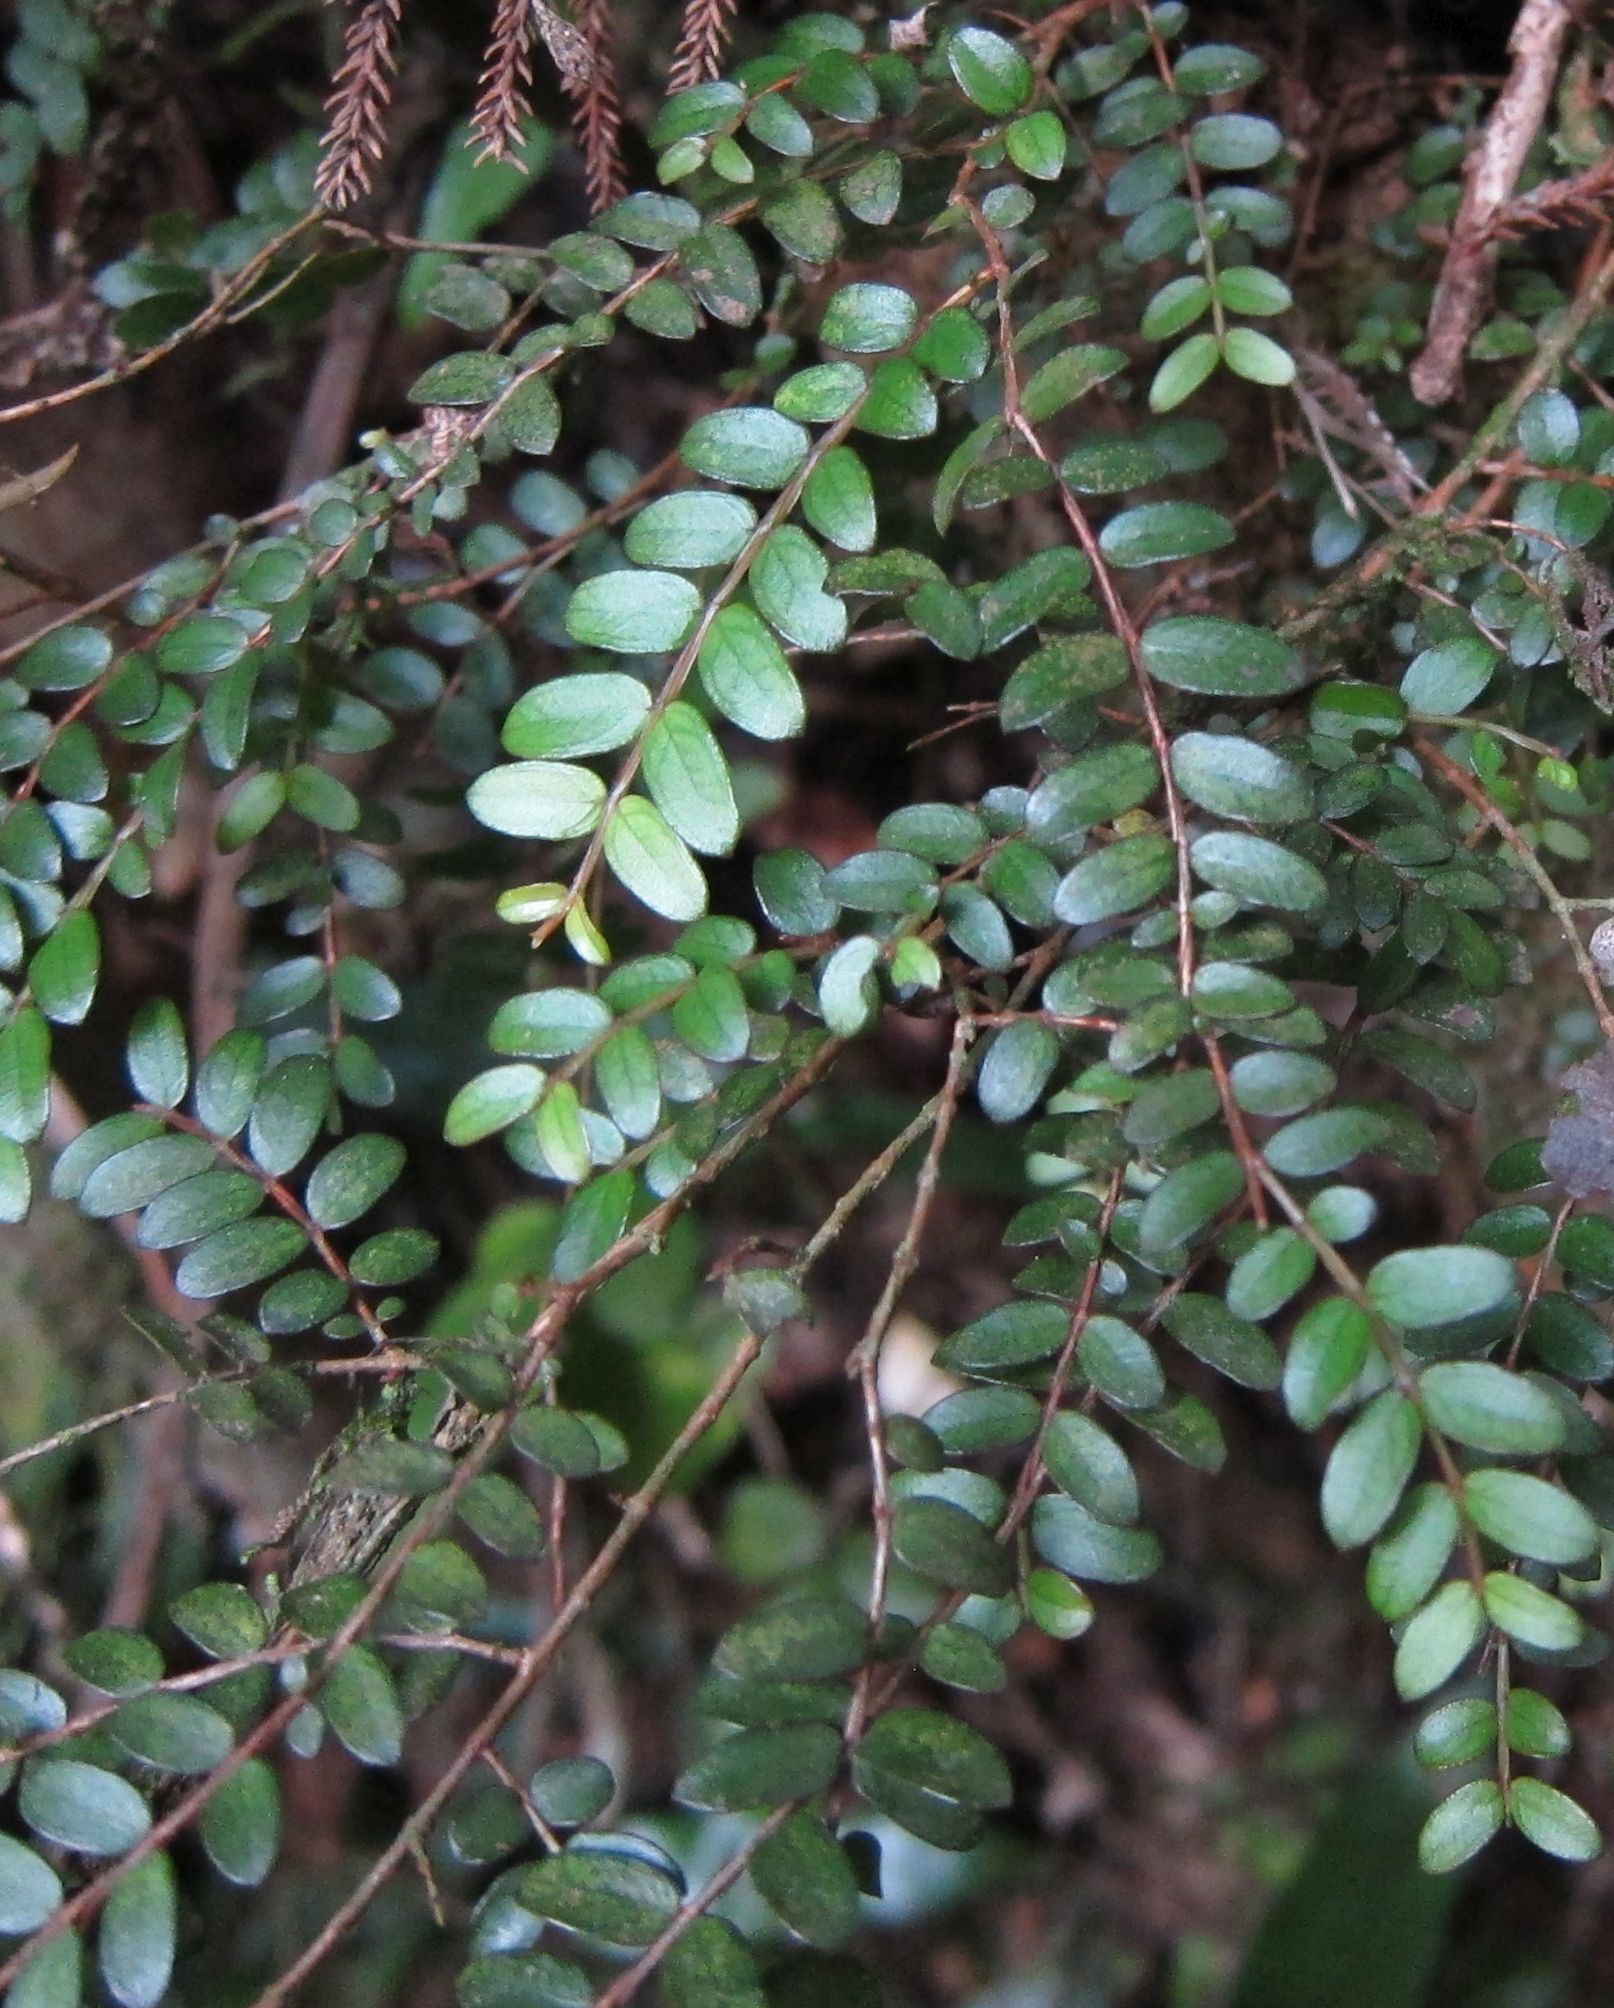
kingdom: Plantae
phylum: Tracheophyta
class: Magnoliopsida
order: Myrtales
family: Myrtaceae
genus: Metrosideros
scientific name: Metrosideros diffusa
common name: Small ratavine
